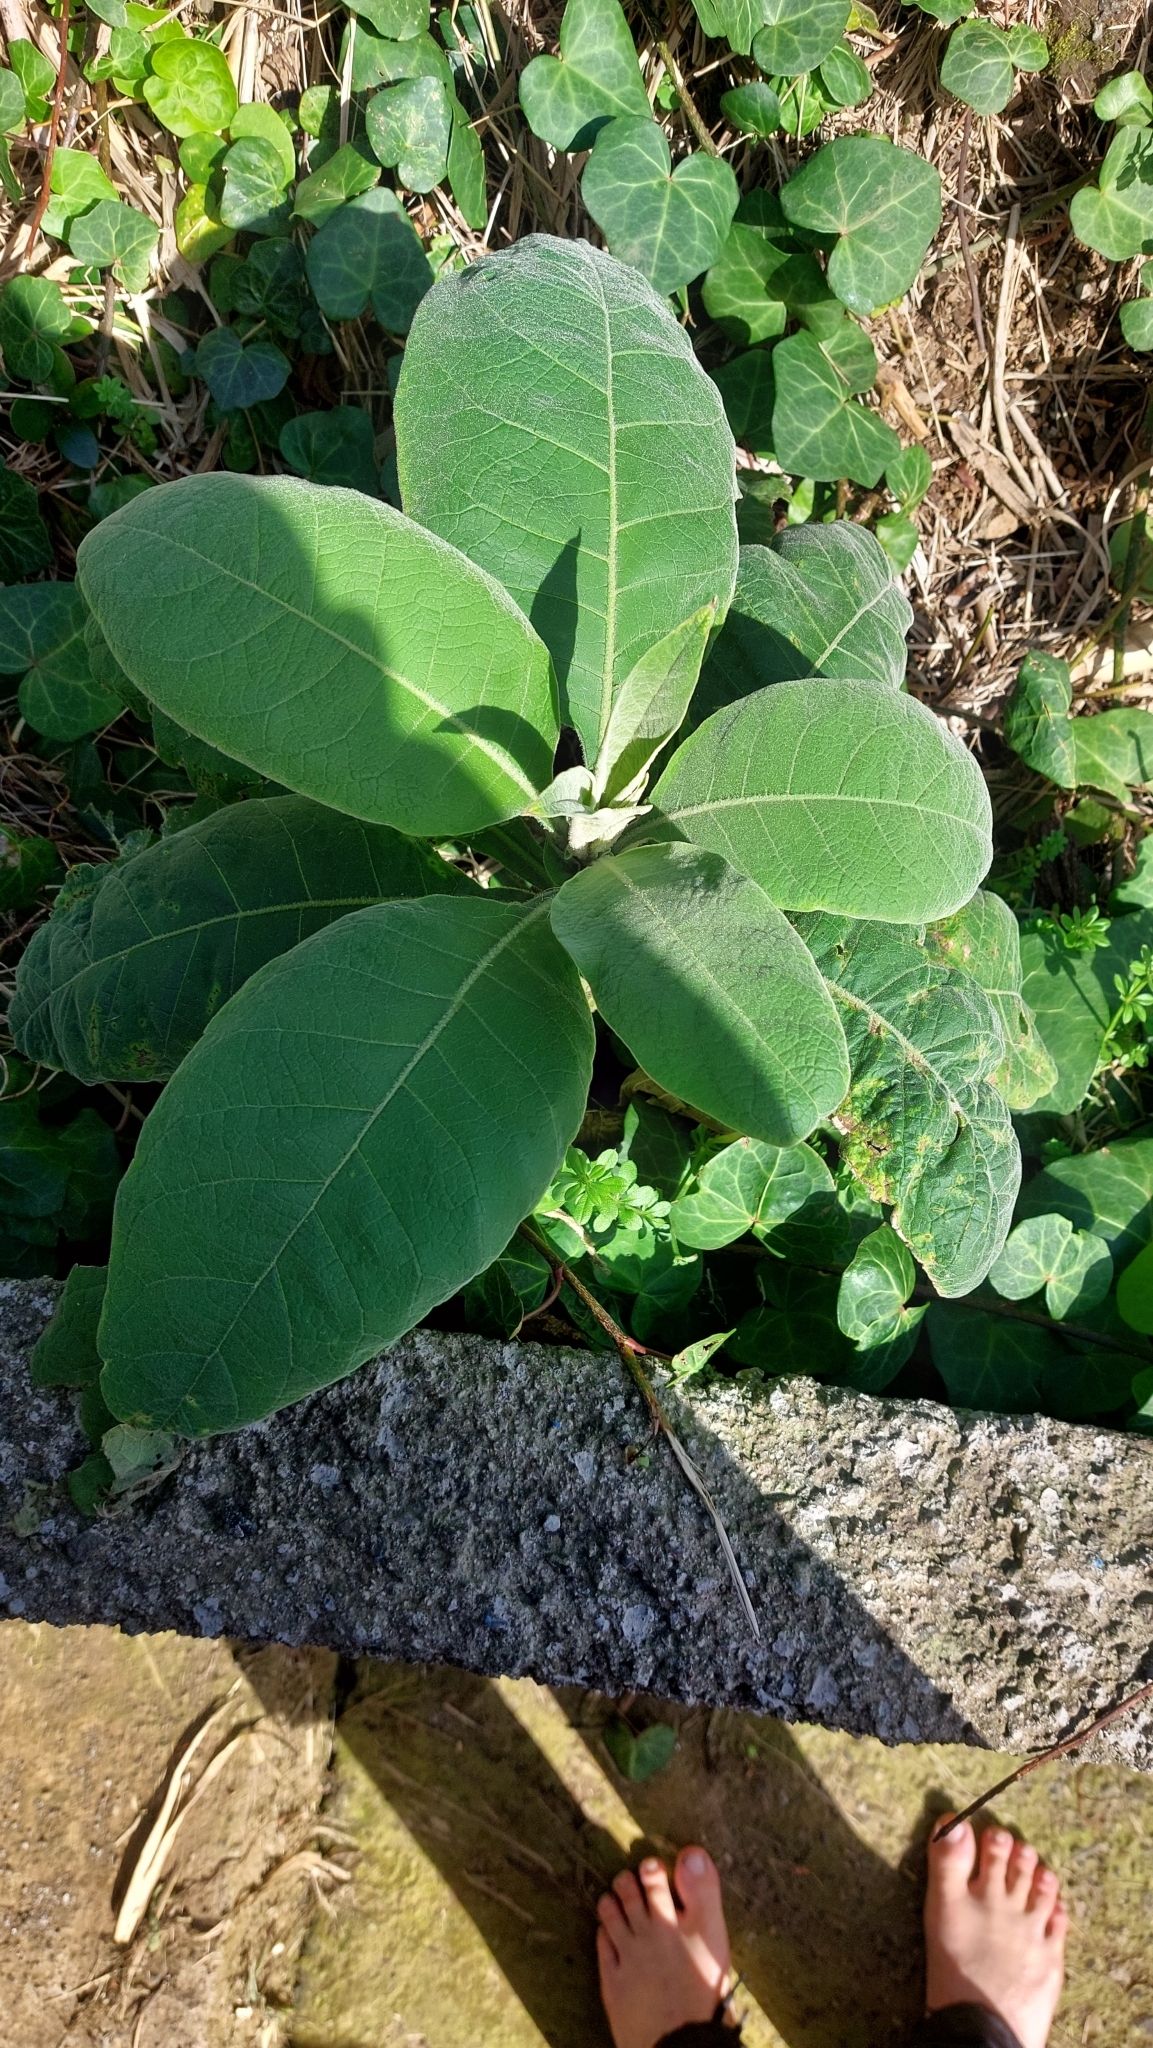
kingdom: Plantae
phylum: Tracheophyta
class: Magnoliopsida
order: Solanales
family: Solanaceae
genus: Solanum
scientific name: Solanum mauritianum
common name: Earleaf nightshade
